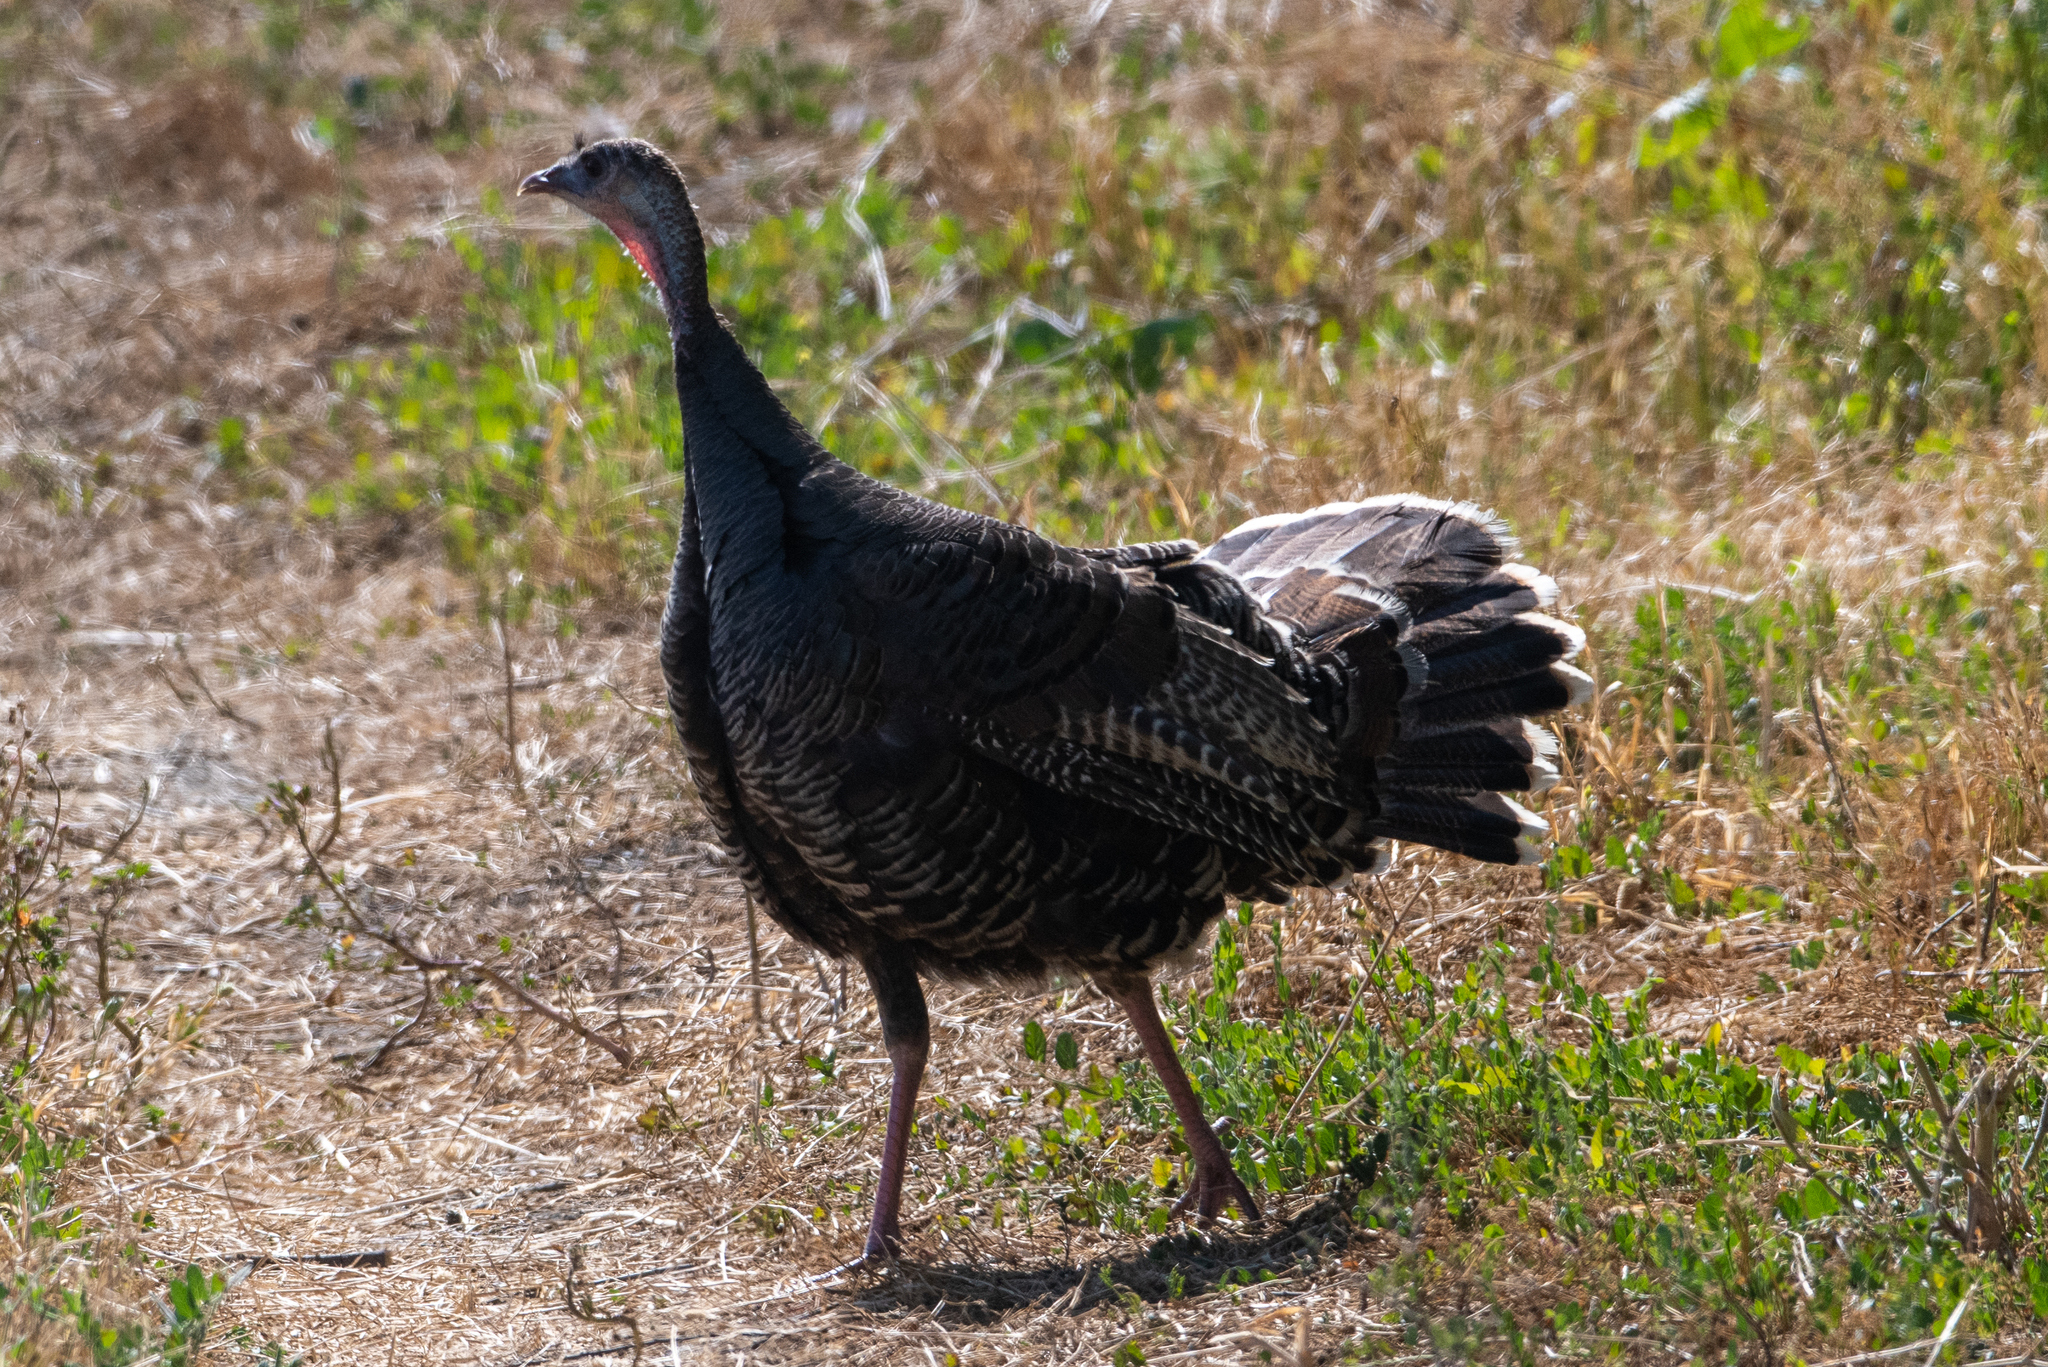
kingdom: Animalia
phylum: Chordata
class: Aves
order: Galliformes
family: Phasianidae
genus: Meleagris
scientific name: Meleagris gallopavo
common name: Wild turkey
